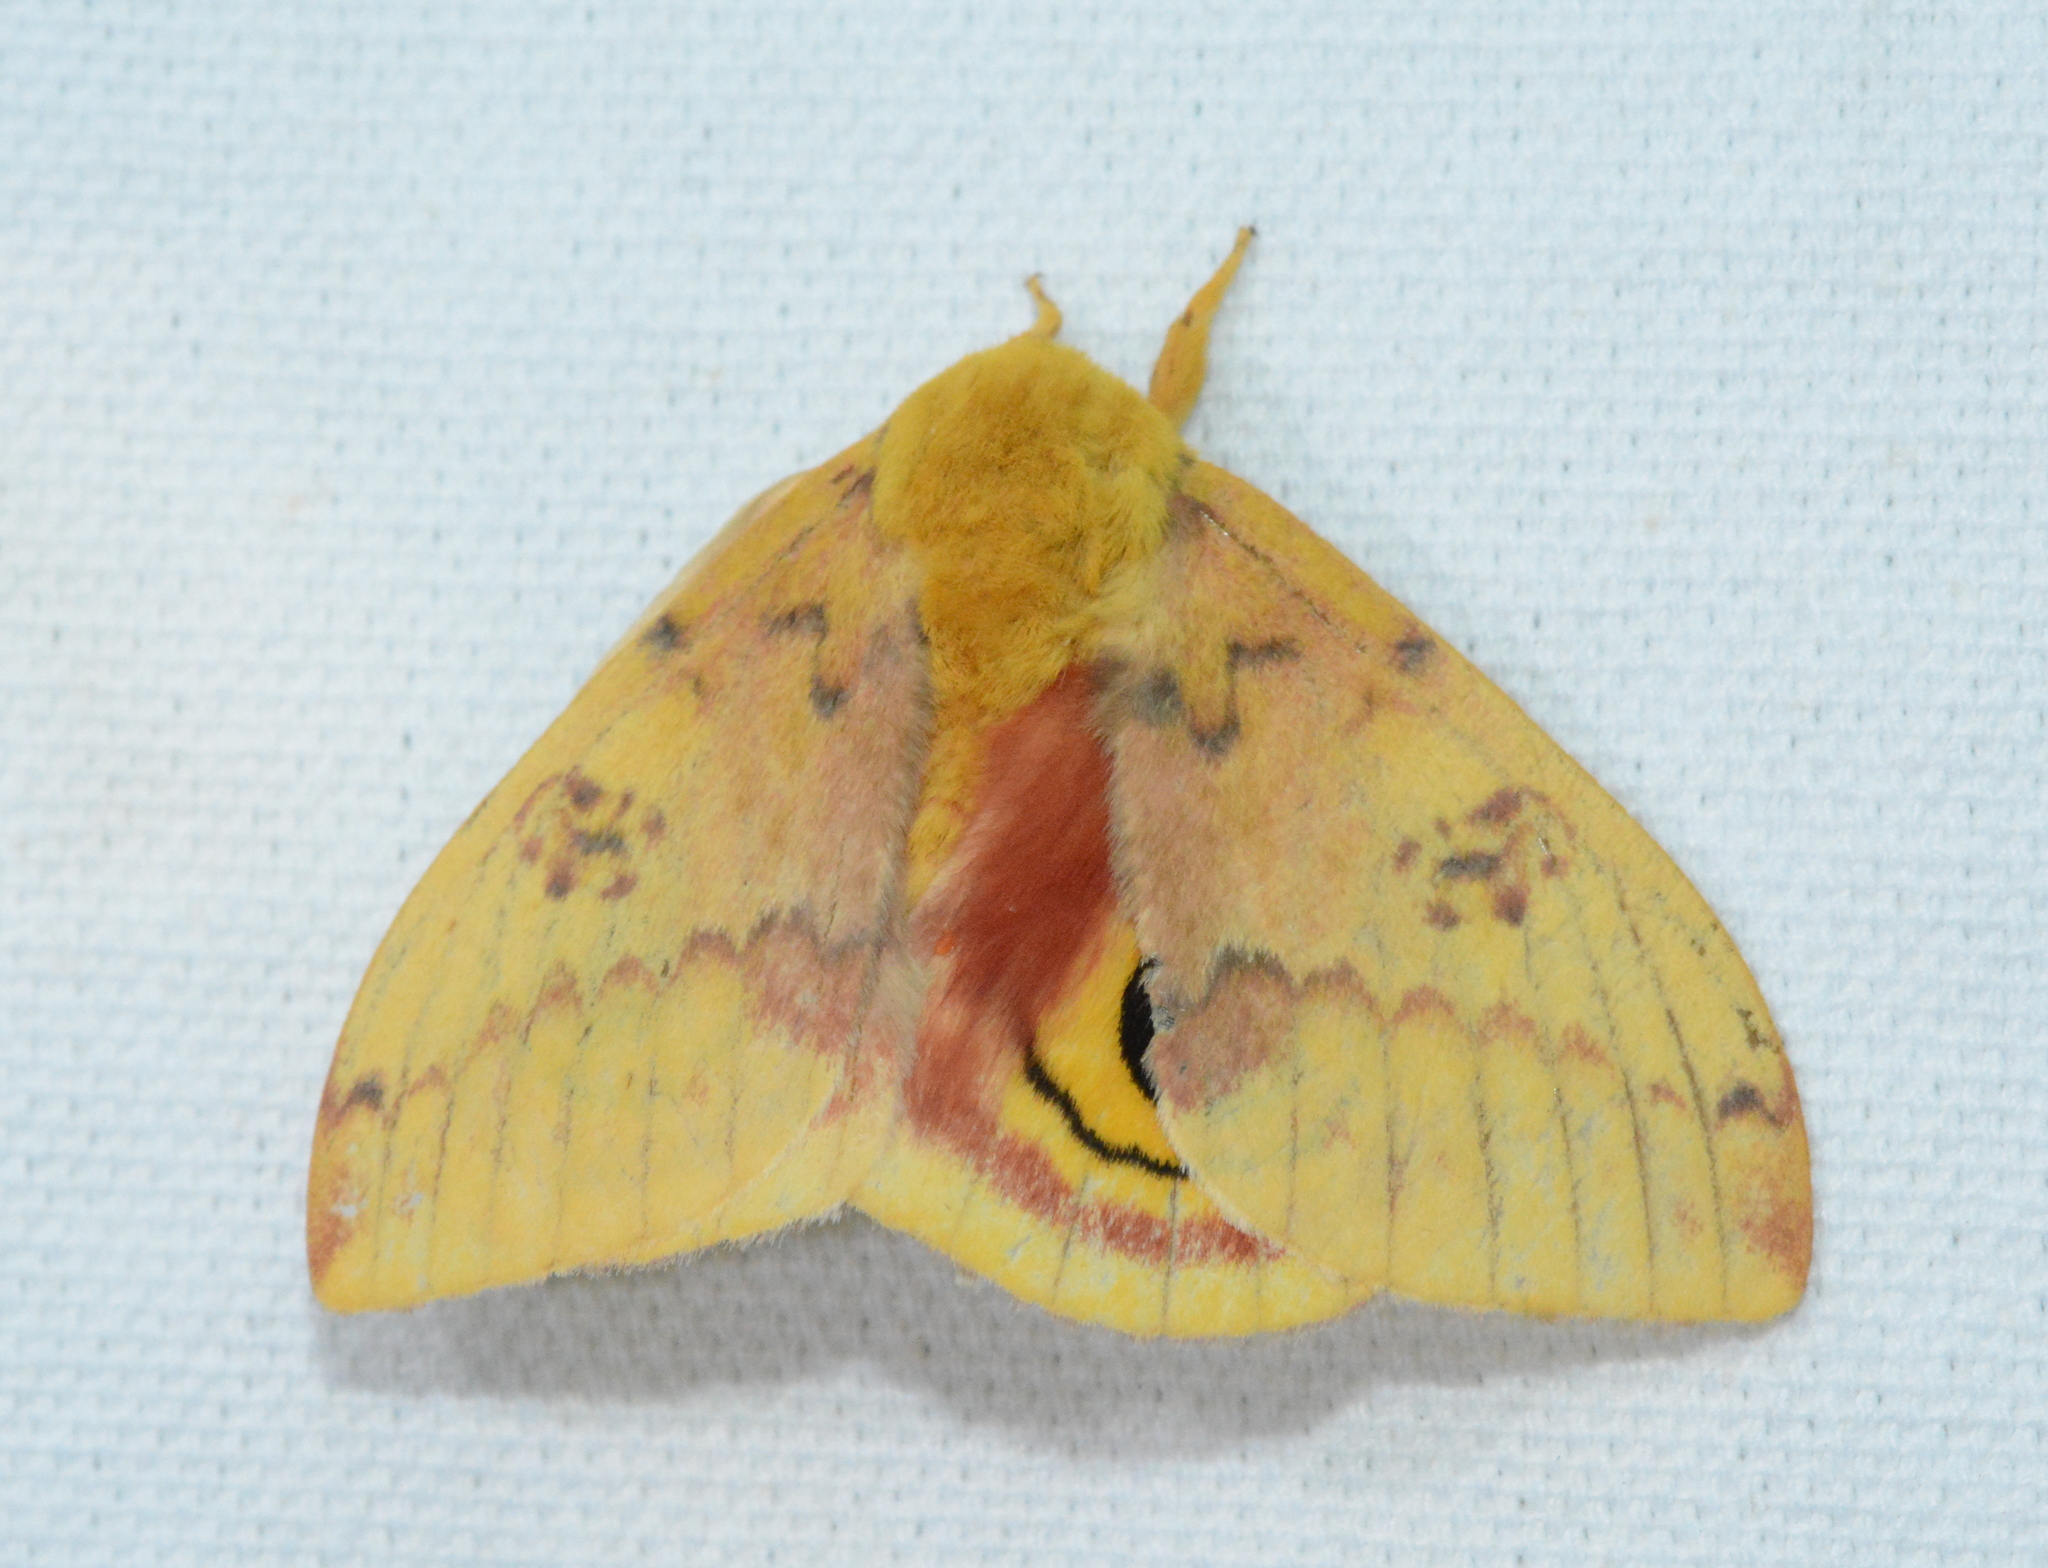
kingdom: Animalia
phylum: Arthropoda
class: Insecta
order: Lepidoptera
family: Saturniidae
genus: Automeris
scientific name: Automeris io
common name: Io moth
